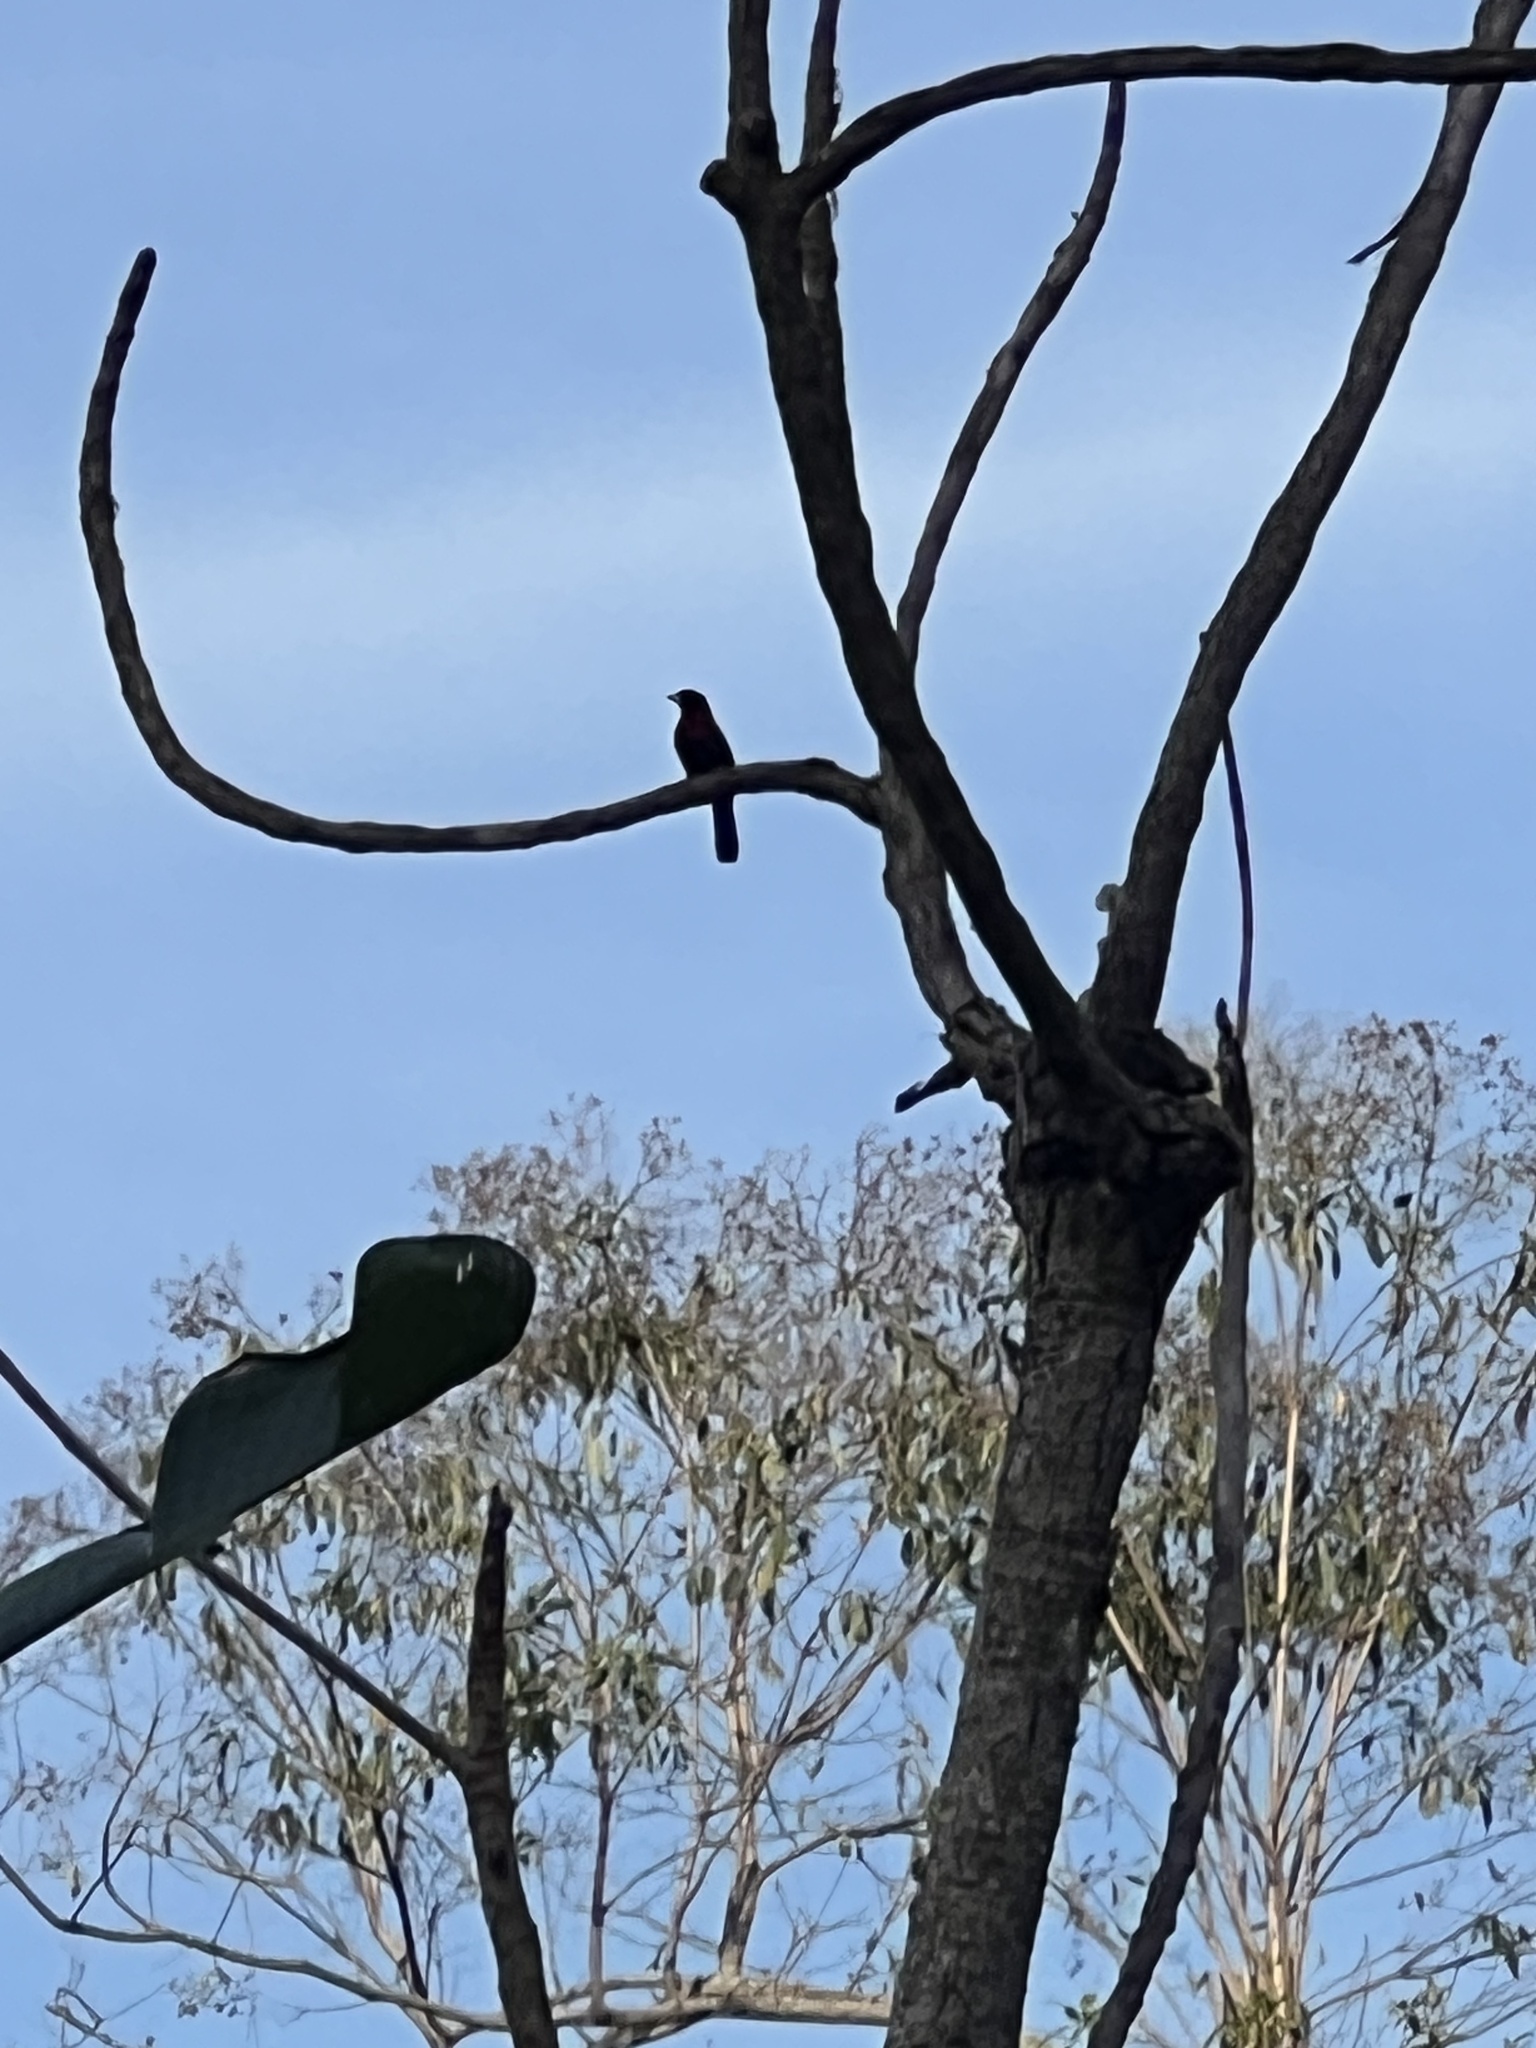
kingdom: Animalia
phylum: Chordata
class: Aves
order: Passeriformes
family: Corvidae
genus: Psilorhinus
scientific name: Psilorhinus morio
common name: Brown jay
